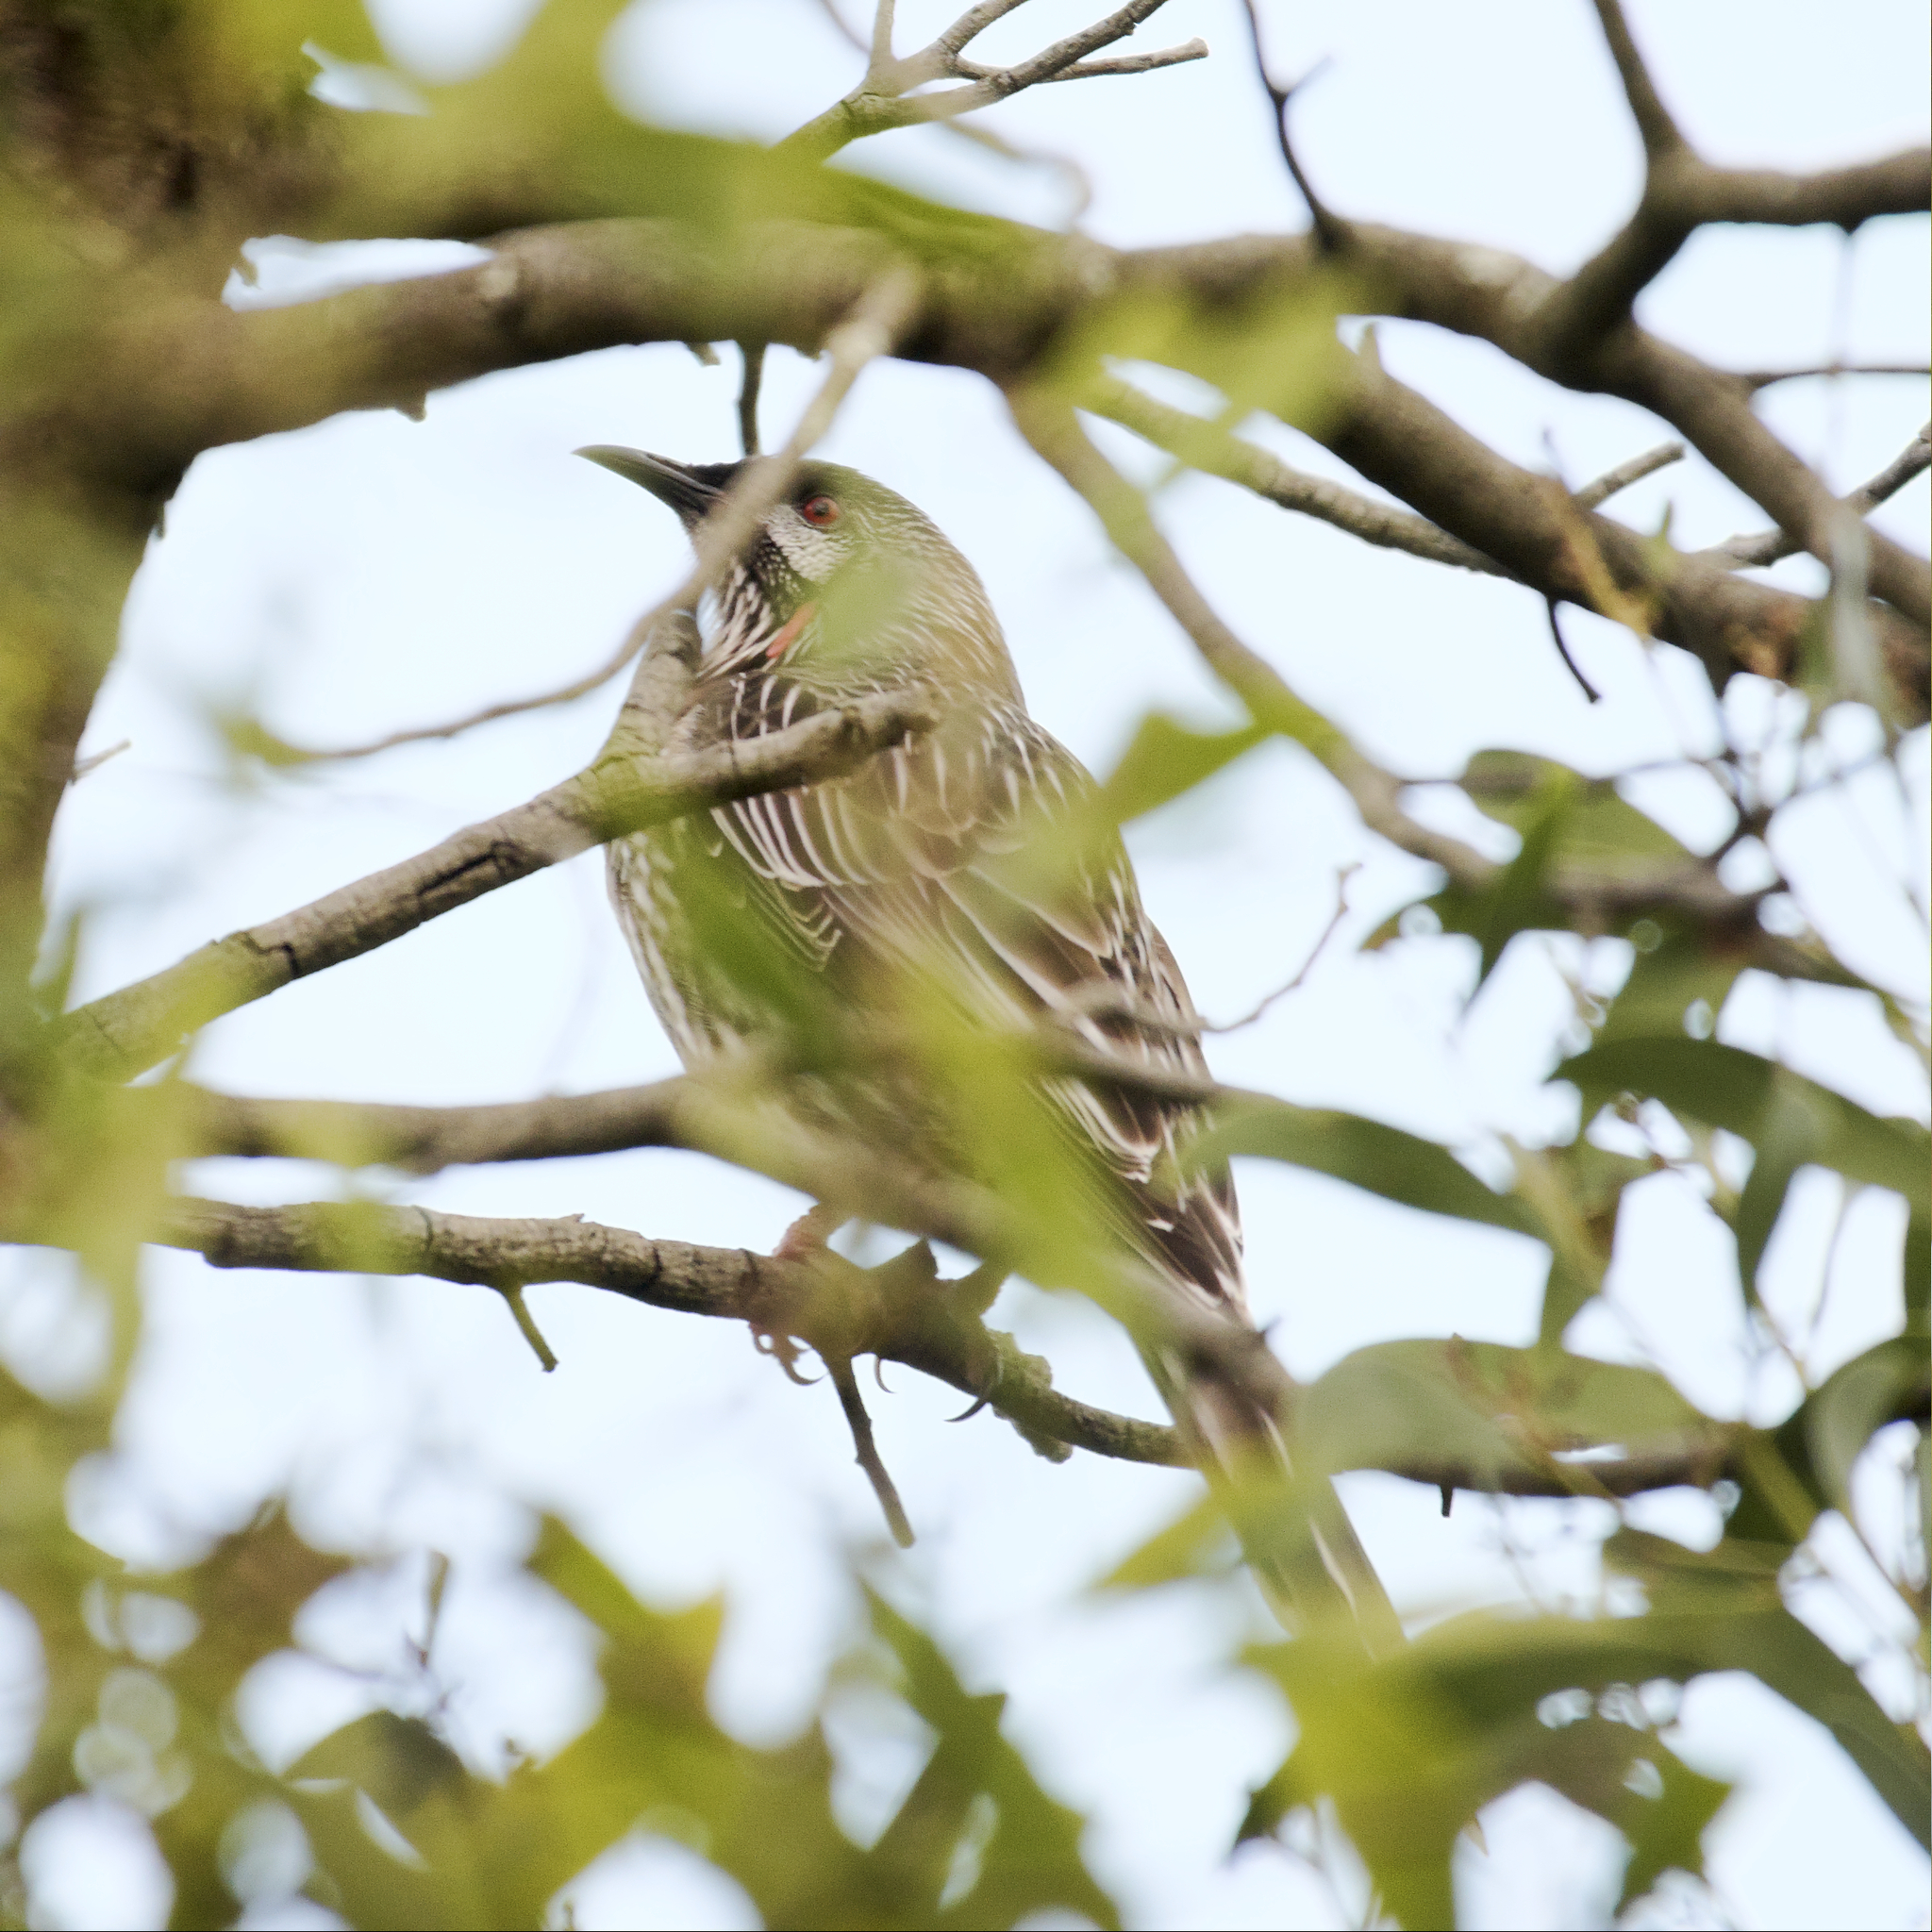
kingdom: Animalia
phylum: Chordata
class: Aves
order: Passeriformes
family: Meliphagidae
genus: Anthochaera
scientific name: Anthochaera carunculata
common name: Red wattlebird
